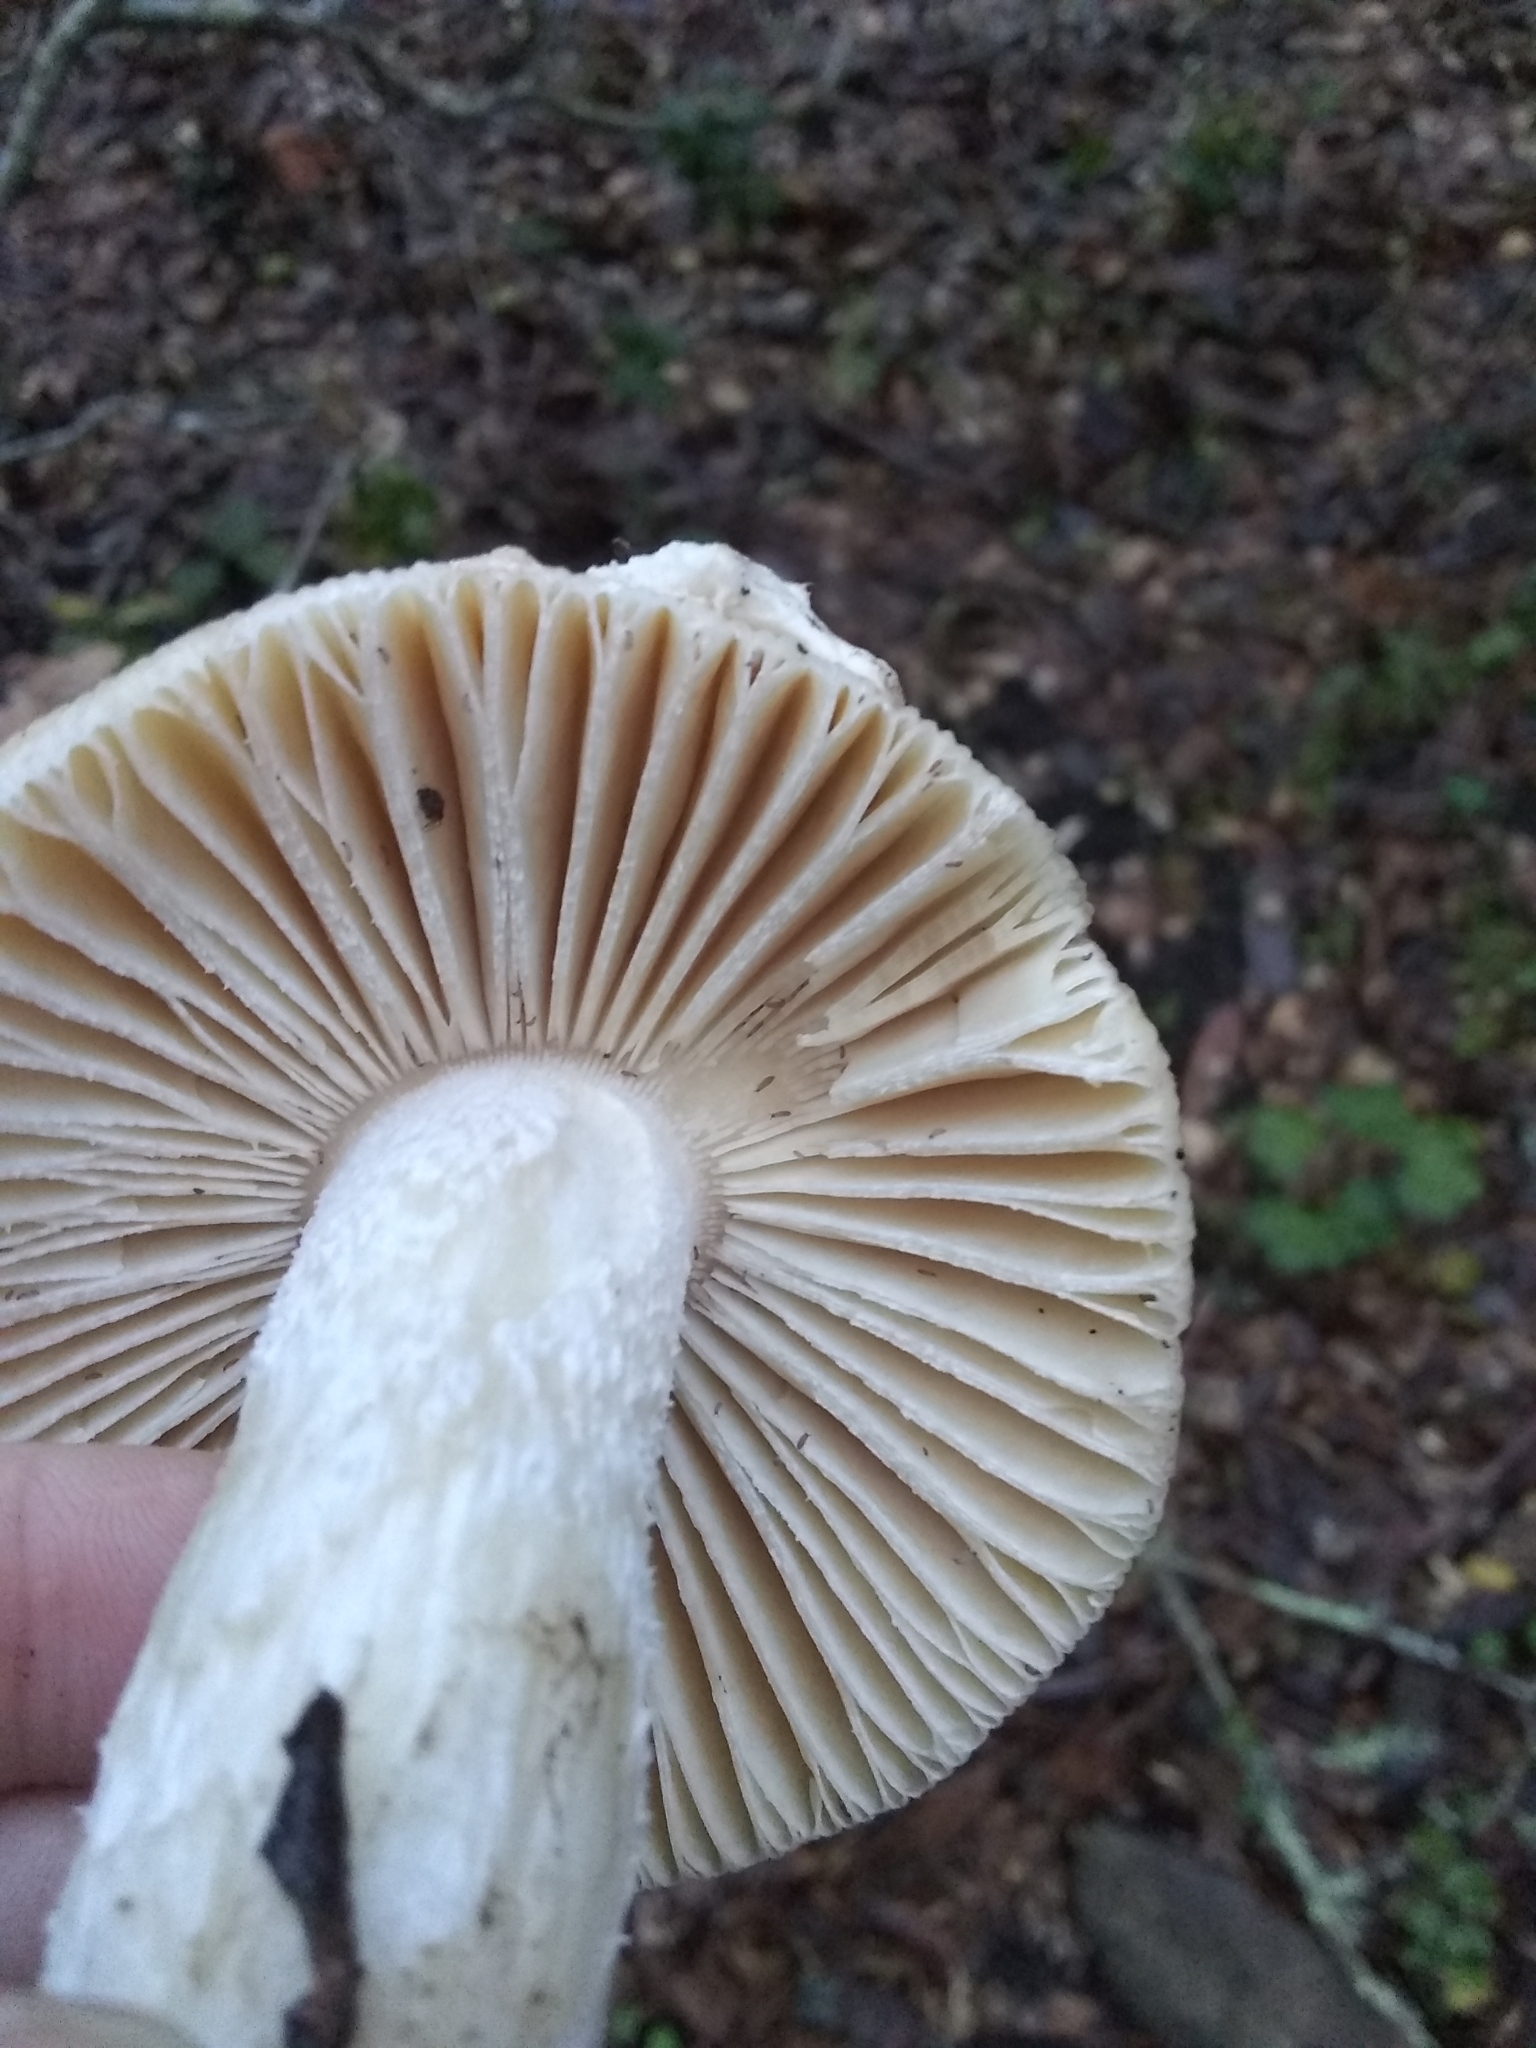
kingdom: Fungi
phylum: Basidiomycota
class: Agaricomycetes
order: Agaricales
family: Amanitaceae
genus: Amanita
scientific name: Amanita velosa
